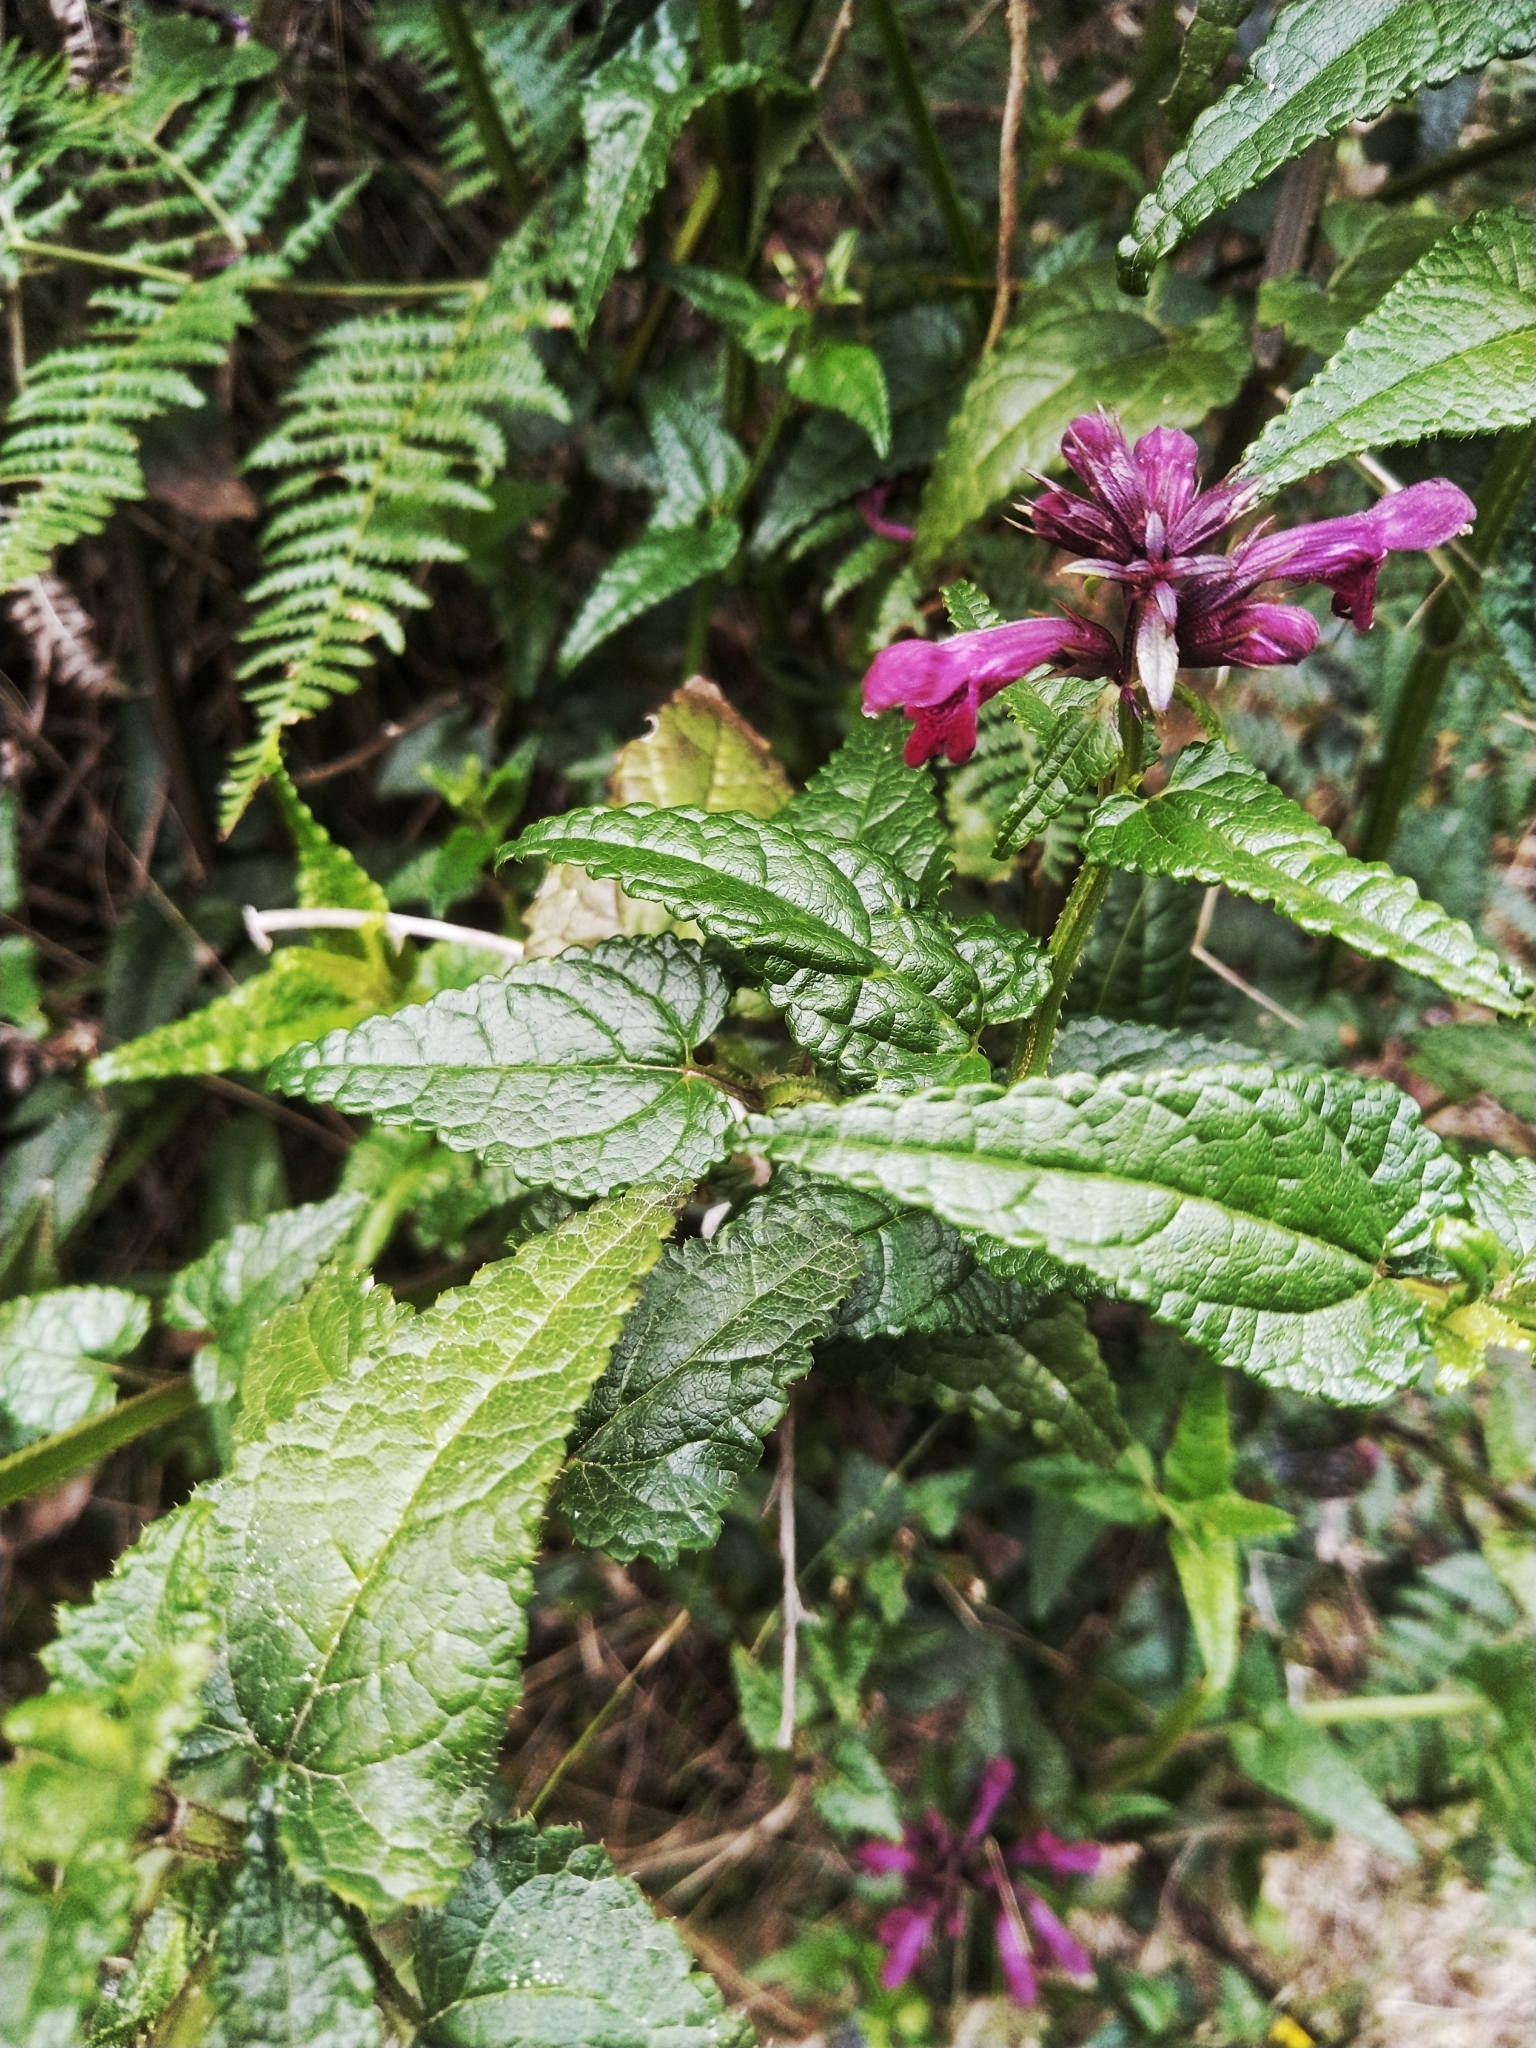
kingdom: Plantae
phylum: Tracheophyta
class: Magnoliopsida
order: Lamiales
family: Lamiaceae
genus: Stachys
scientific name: Stachys thunbergii
